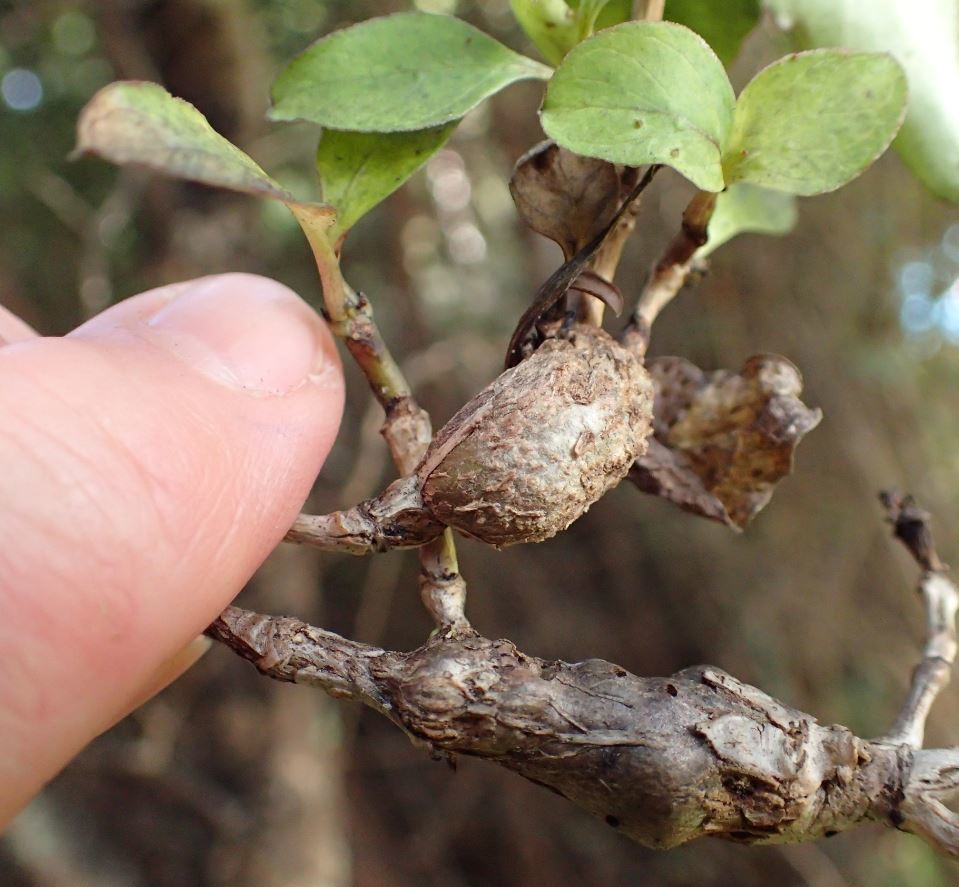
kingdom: Plantae
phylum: Tracheophyta
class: Magnoliopsida
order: Gentianales
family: Rubiaceae
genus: Coprosma
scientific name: Coprosma foetidissima
